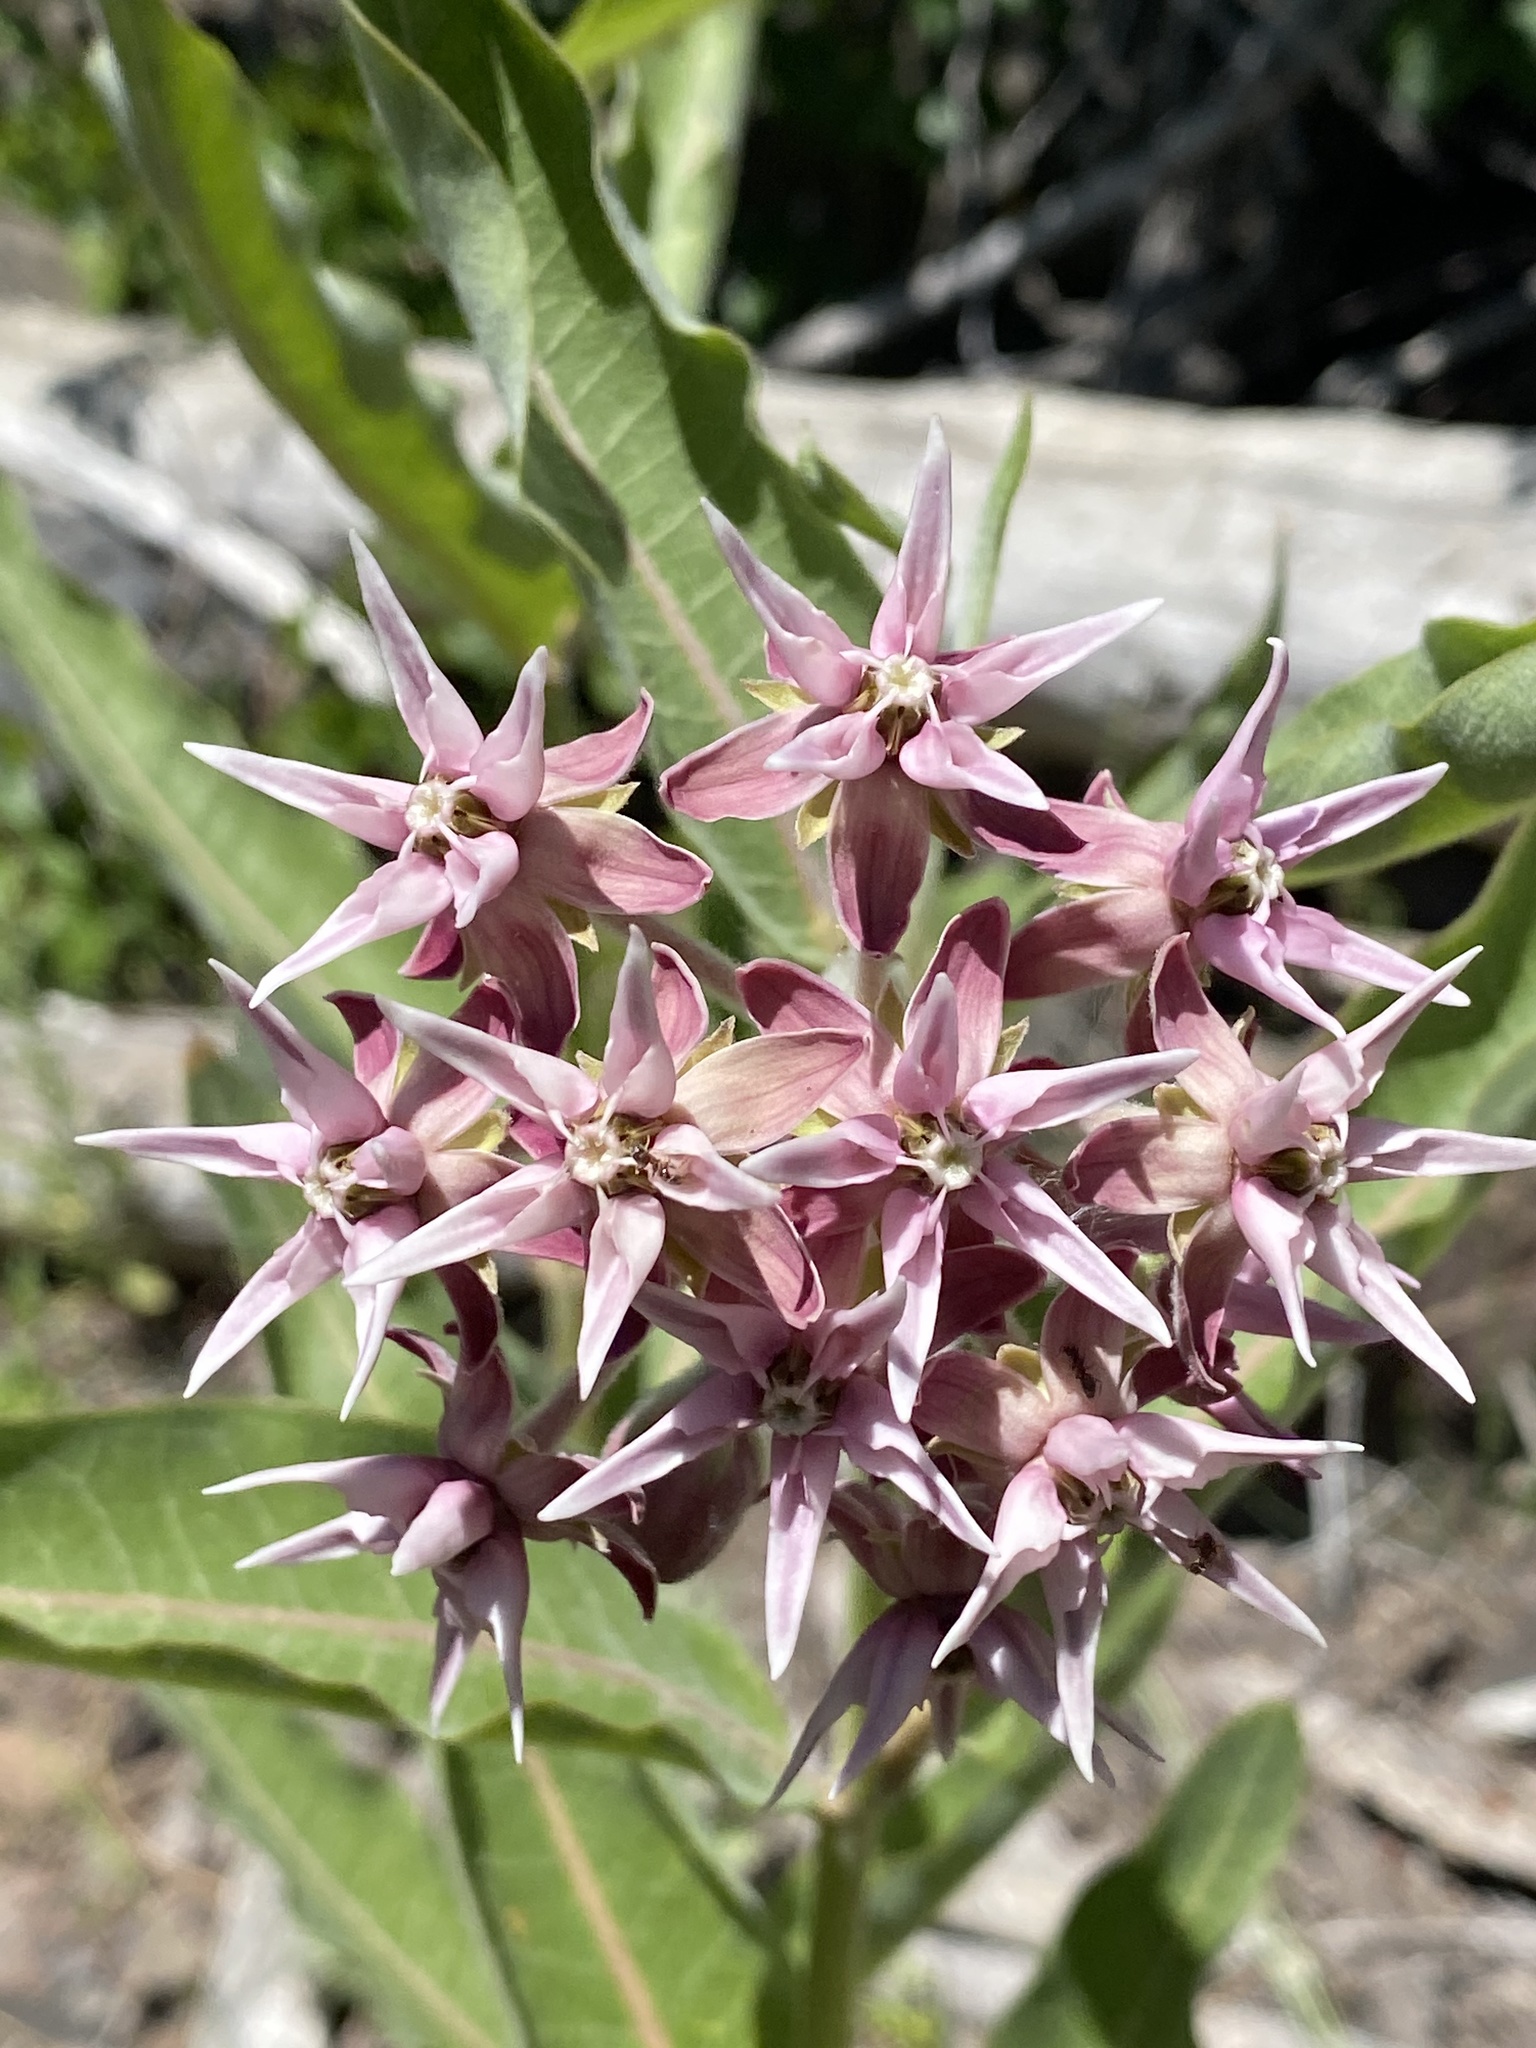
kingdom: Plantae
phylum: Tracheophyta
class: Magnoliopsida
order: Gentianales
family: Apocynaceae
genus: Asclepias
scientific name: Asclepias speciosa
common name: Showy milkweed
